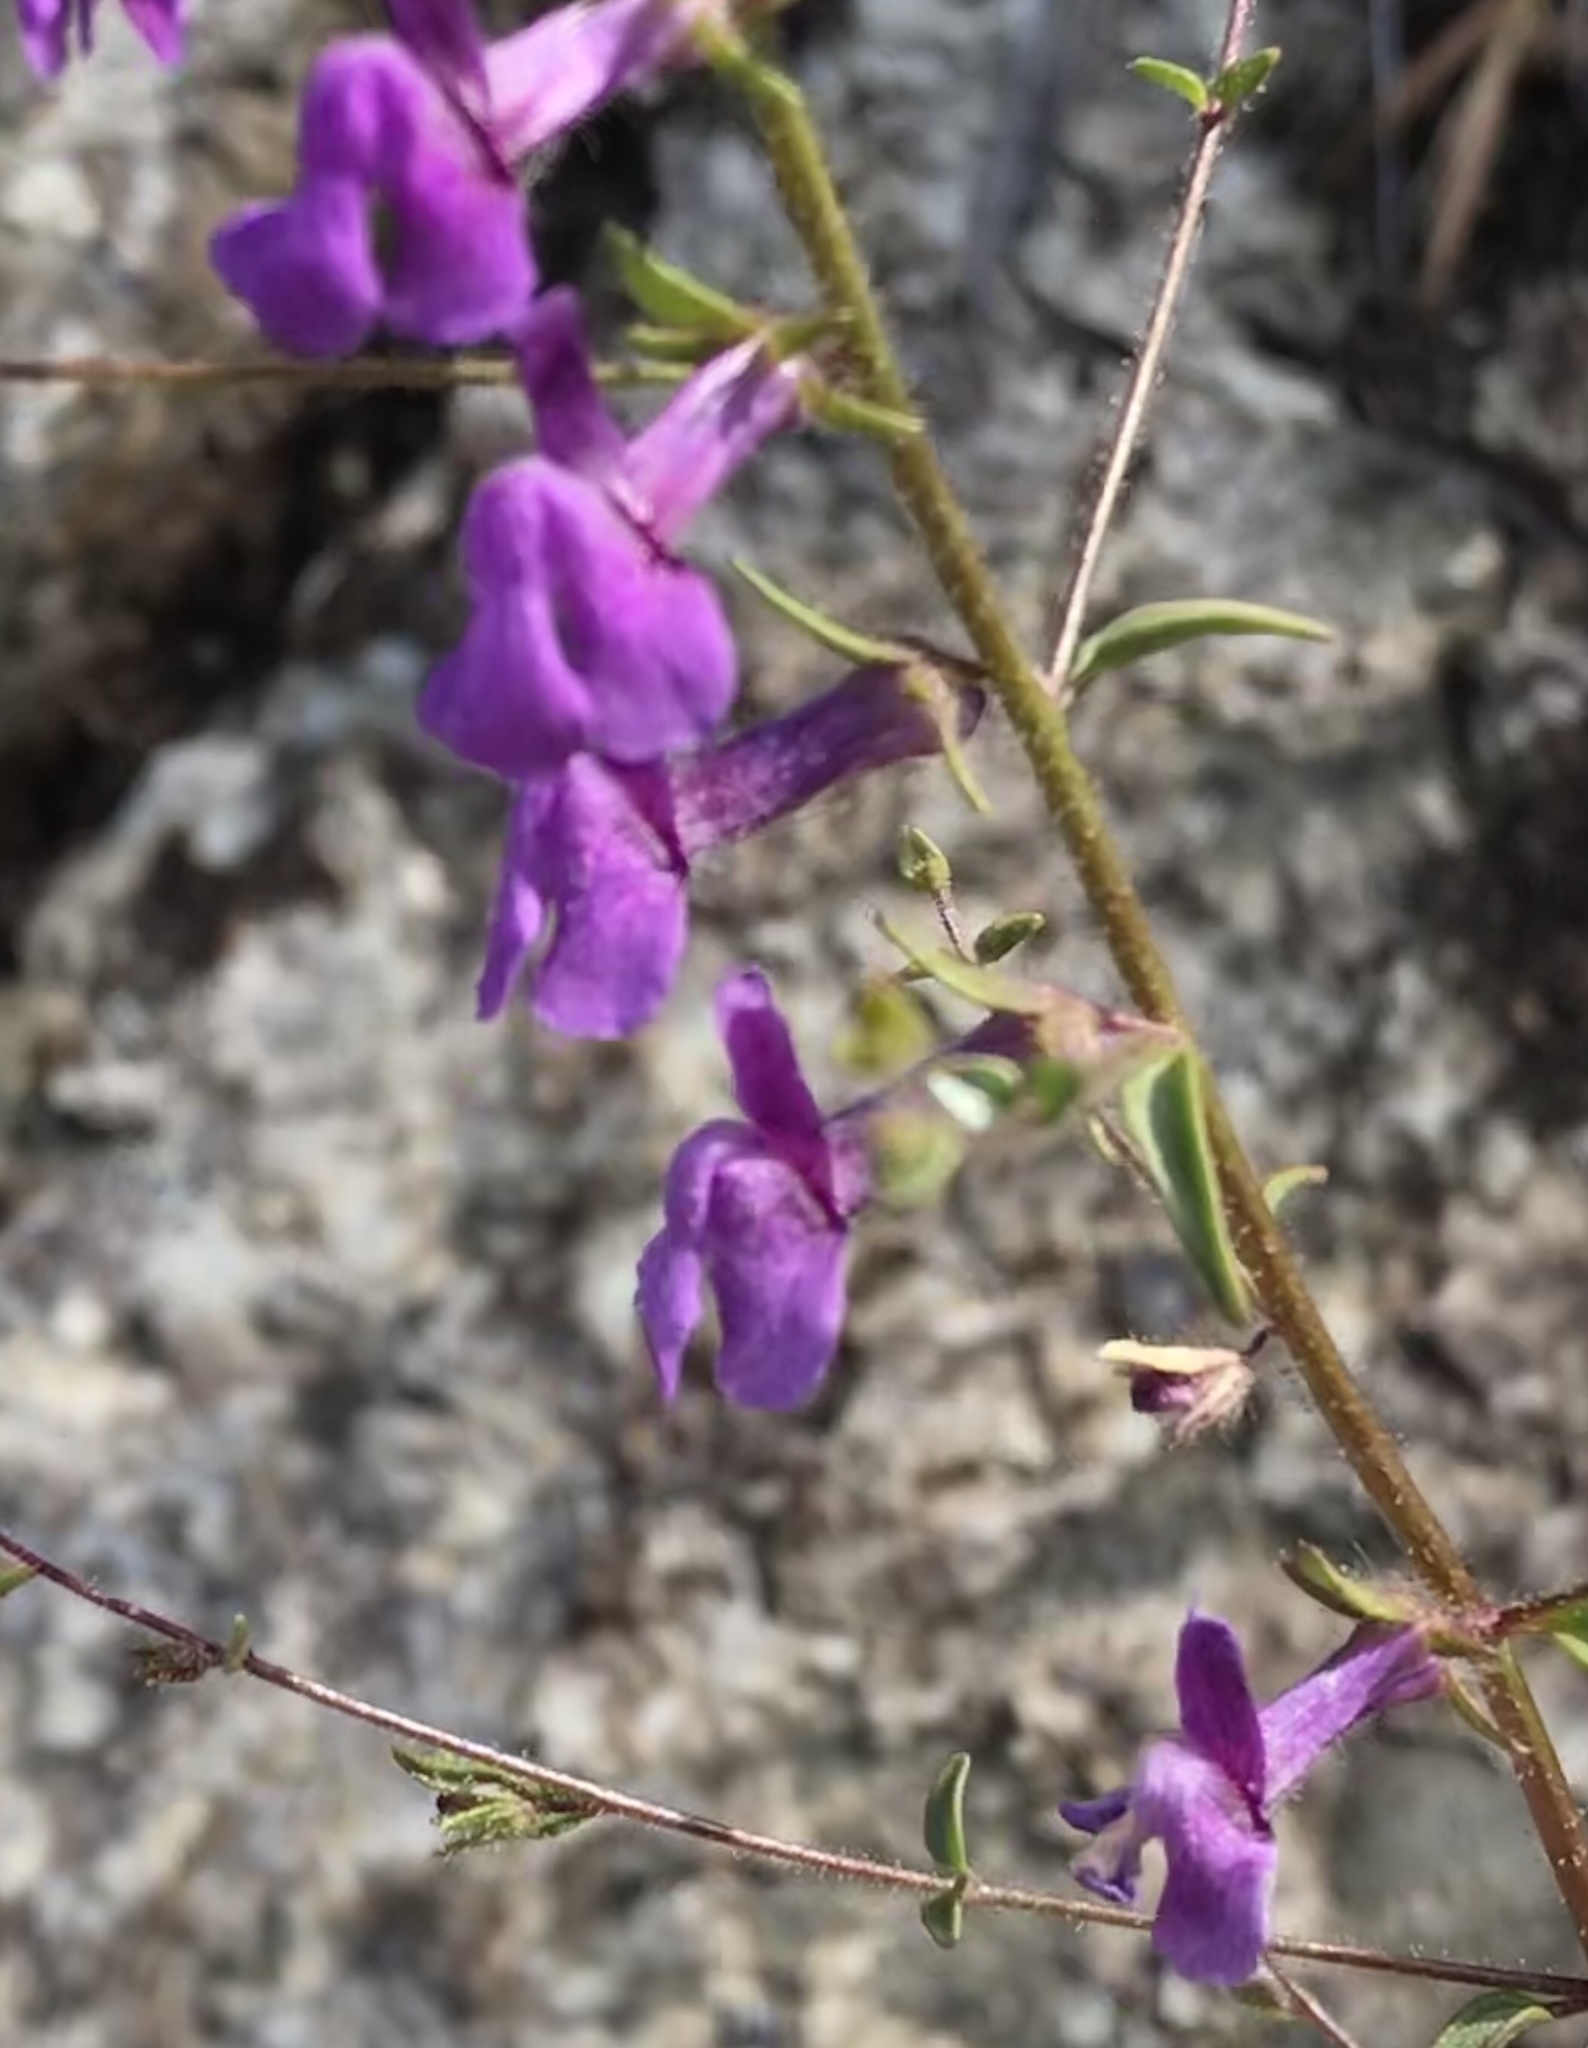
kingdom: Plantae
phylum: Tracheophyta
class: Magnoliopsida
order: Lamiales
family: Plantaginaceae
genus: Sairocarpus
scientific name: Sairocarpus vexillocalyculatus
